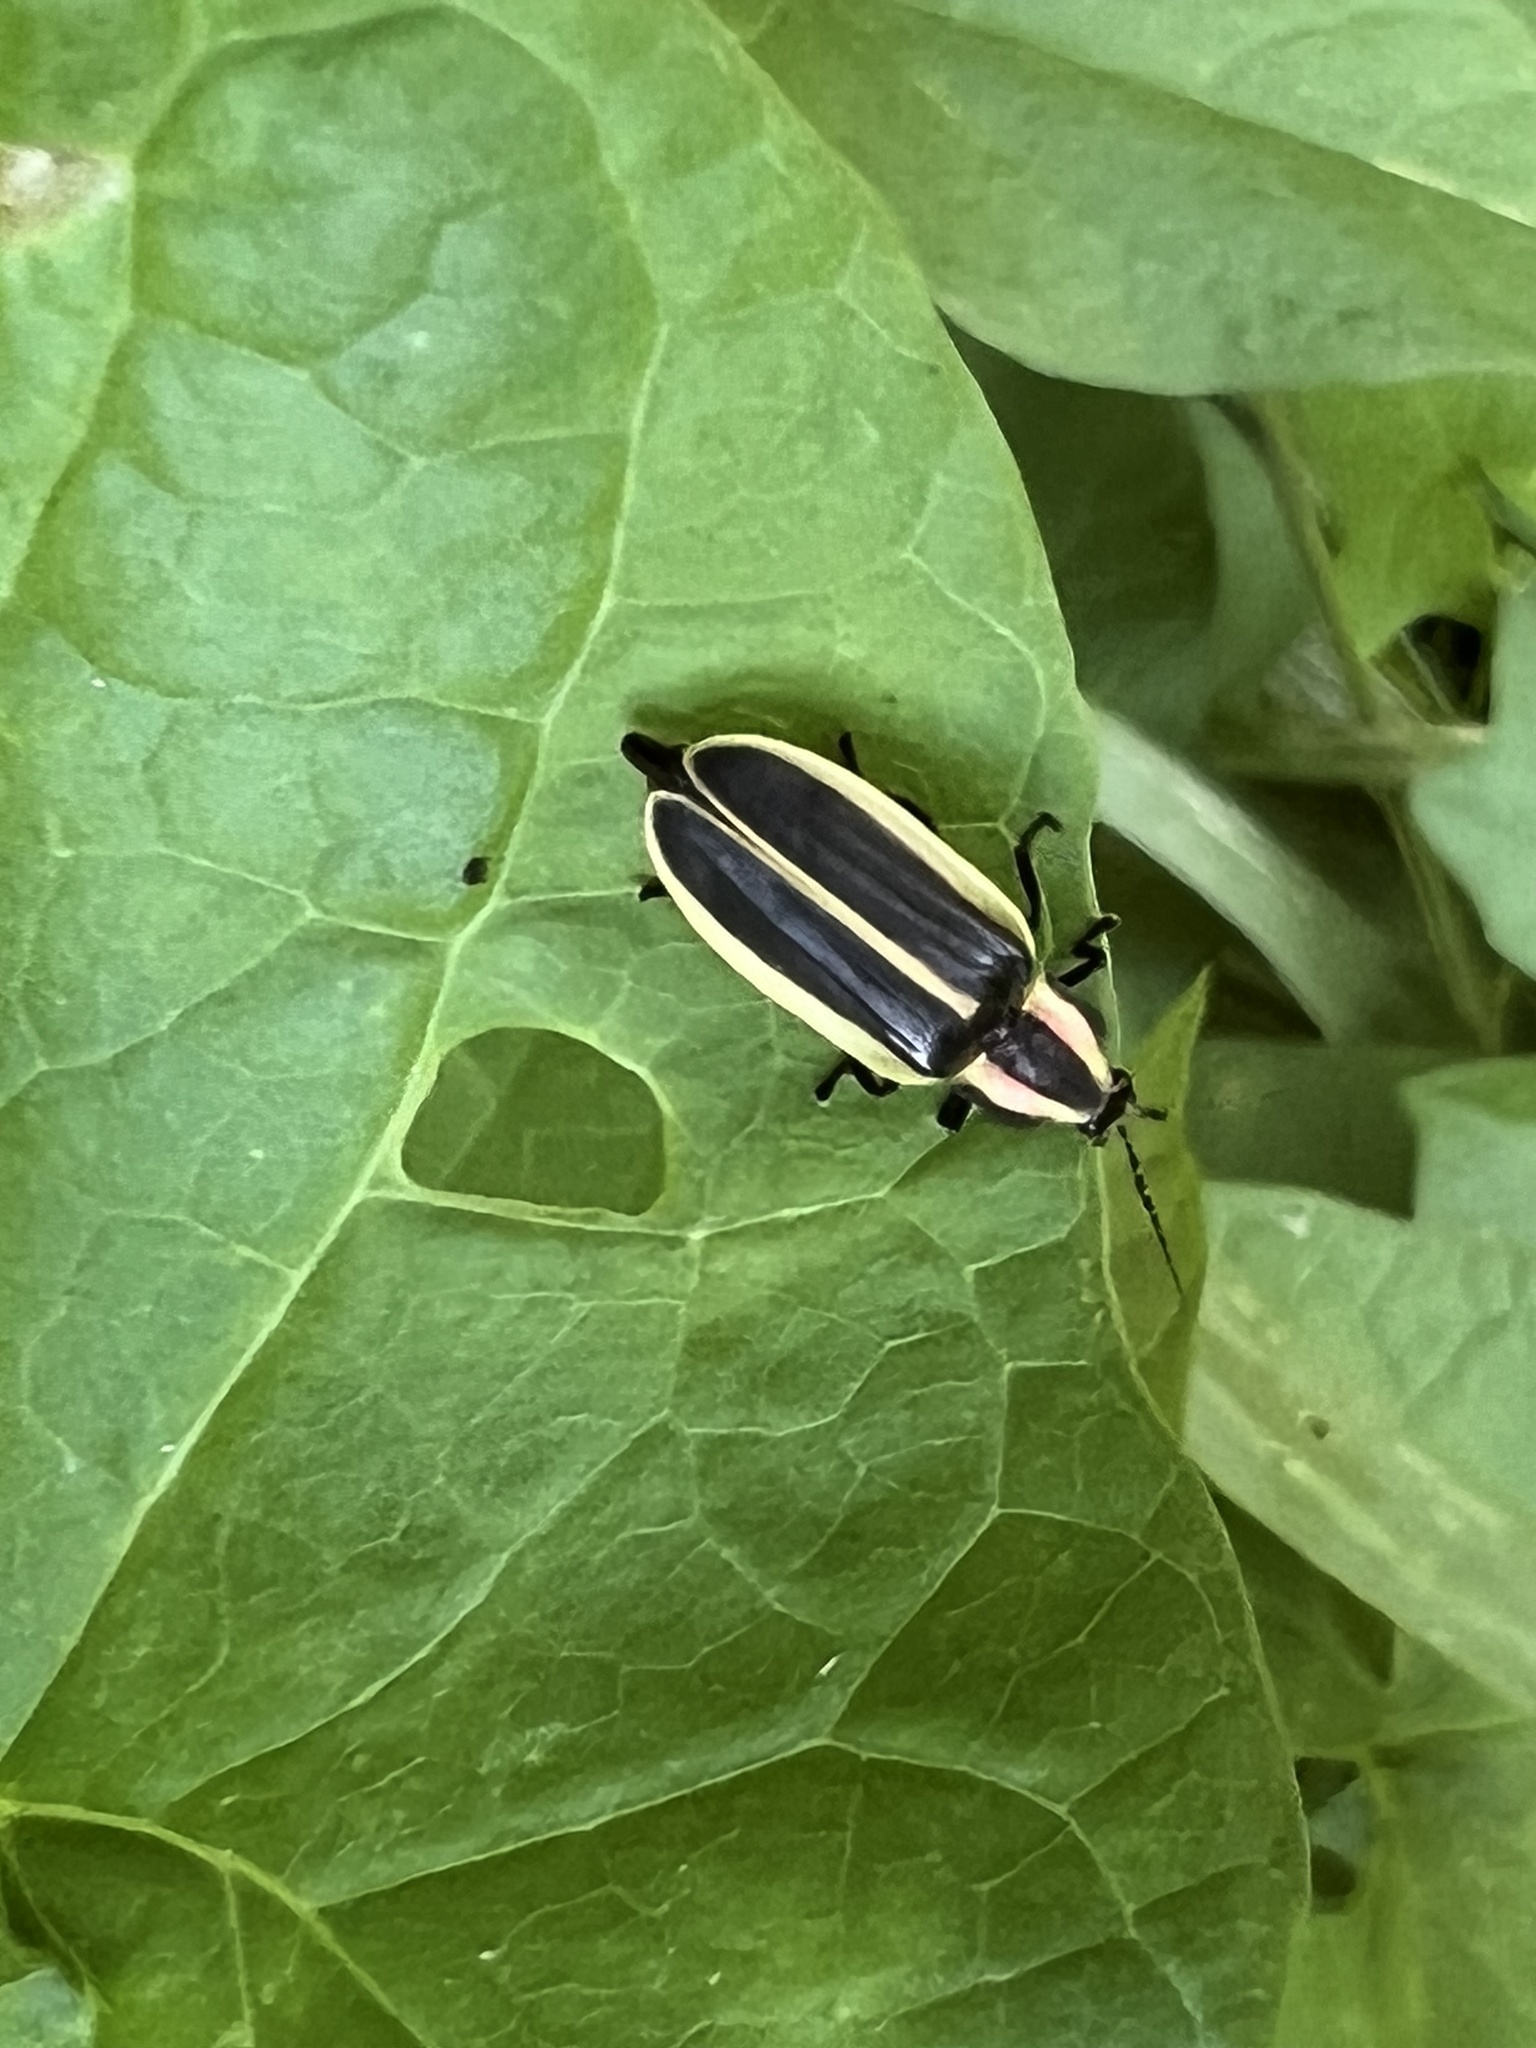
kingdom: Animalia
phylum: Arthropoda
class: Insecta
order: Coleoptera
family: Lampyridae
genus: Pyractomena
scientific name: Pyractomena angulata
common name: Candle firefly
